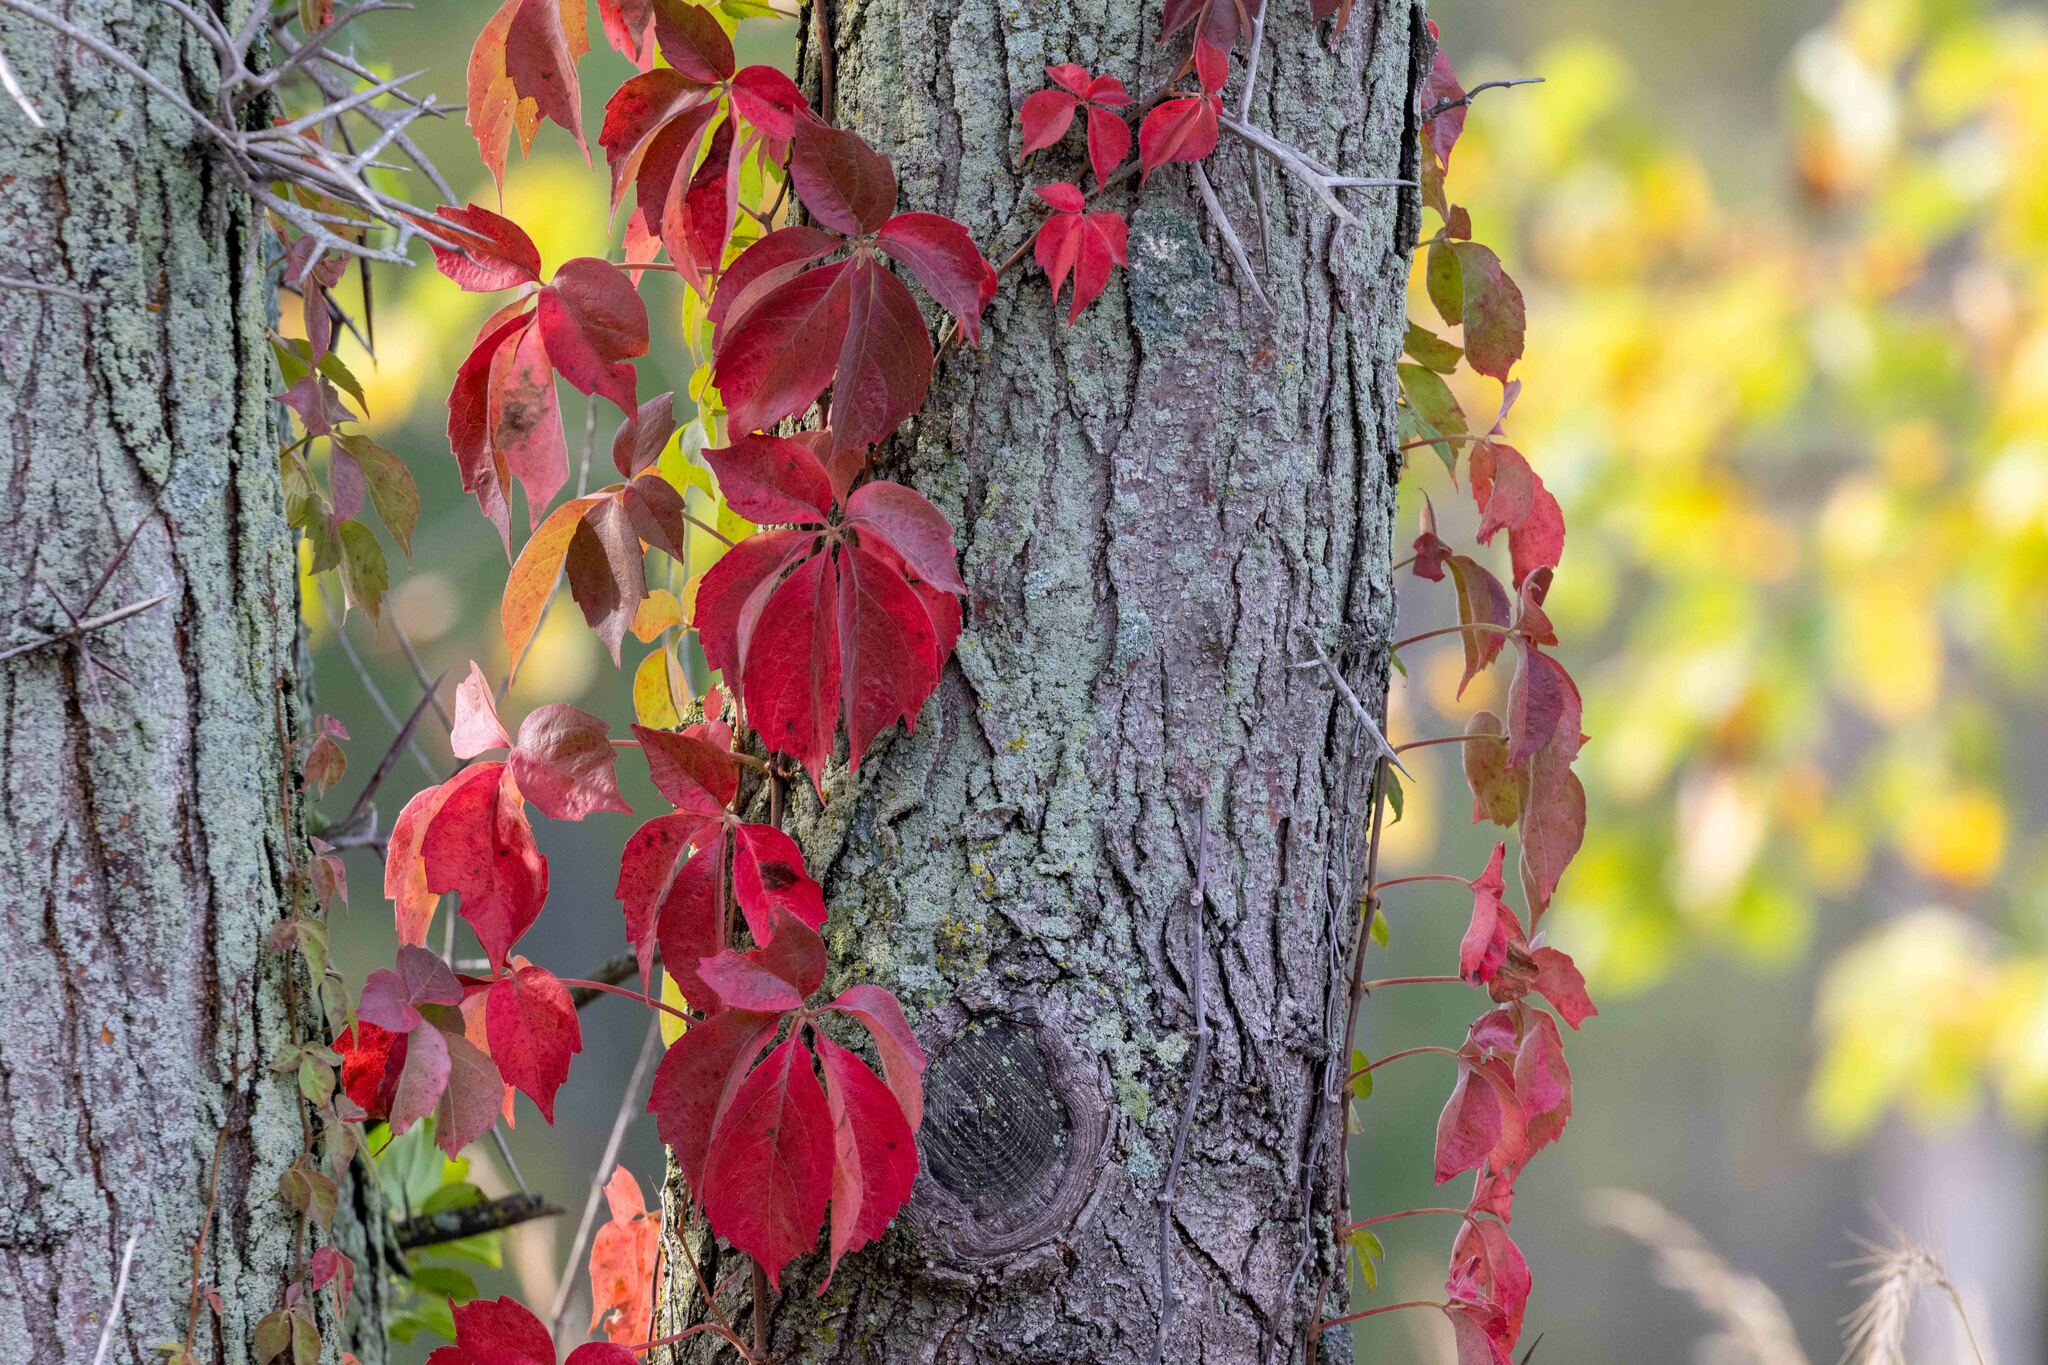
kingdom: Plantae
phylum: Tracheophyta
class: Magnoliopsida
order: Vitales
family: Vitaceae
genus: Parthenocissus
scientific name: Parthenocissus quinquefolia
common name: Virginia-creeper
